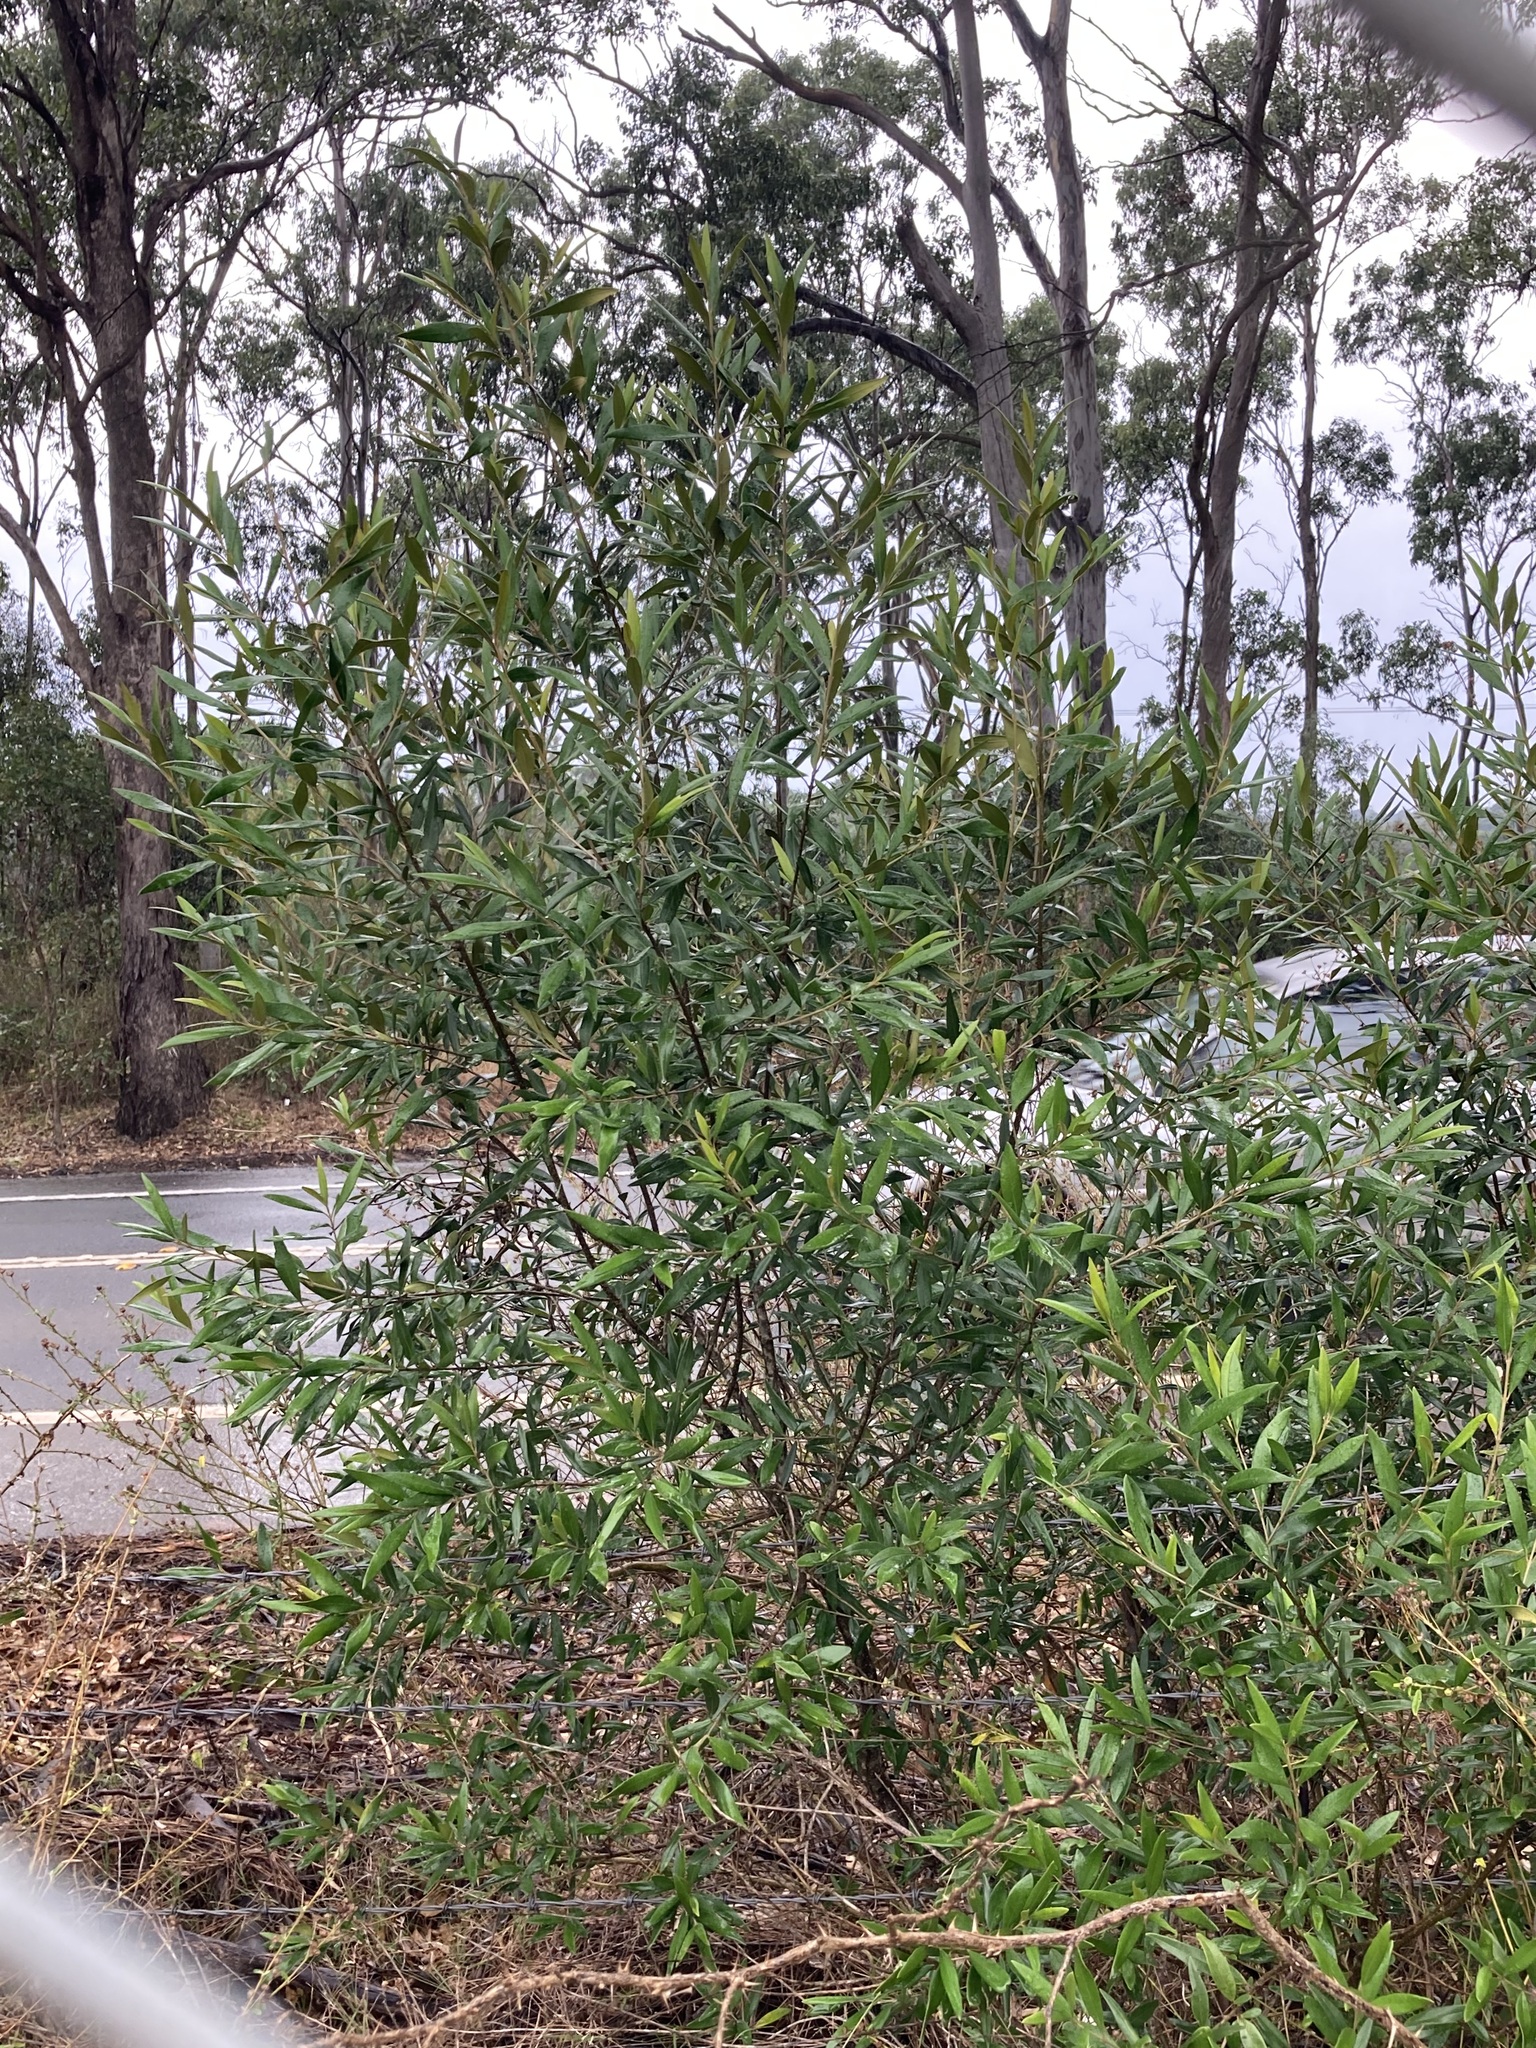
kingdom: Plantae
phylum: Tracheophyta
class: Magnoliopsida
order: Lamiales
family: Oleaceae
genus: Olea
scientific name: Olea europaea
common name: Olive
